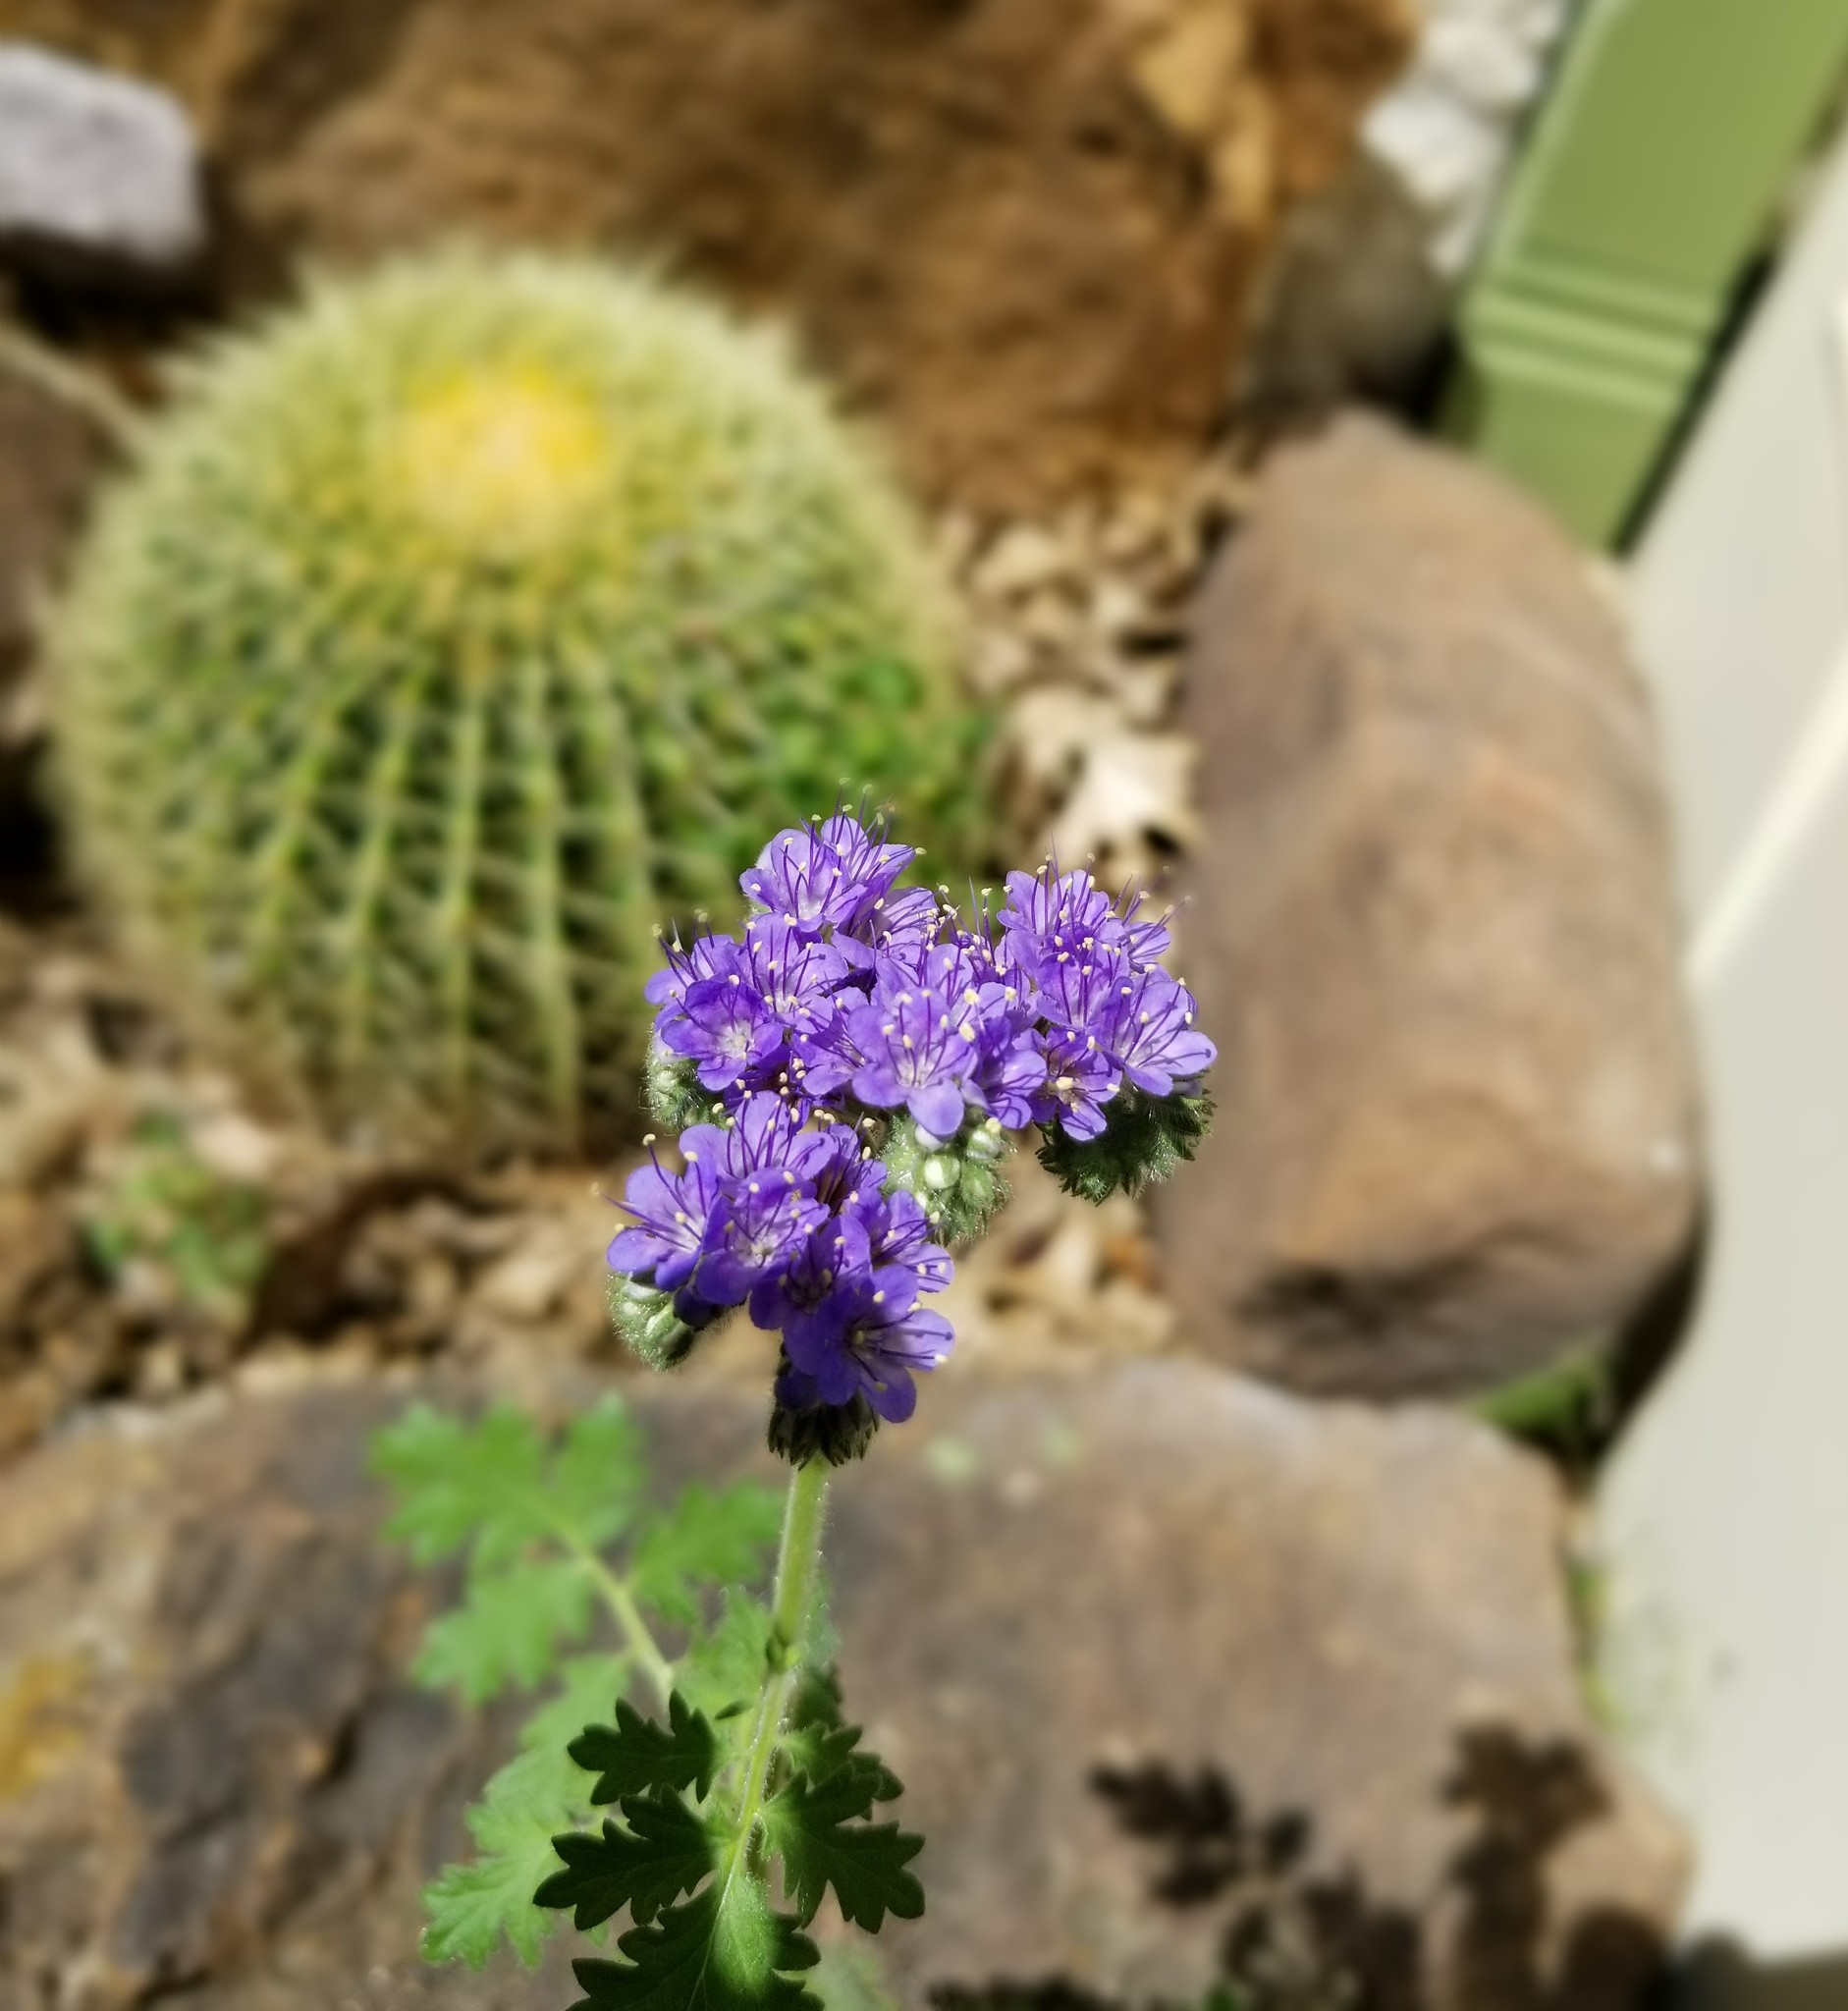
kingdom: Plantae
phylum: Tracheophyta
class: Magnoliopsida
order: Boraginales
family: Hydrophyllaceae
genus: Phacelia
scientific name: Phacelia congesta
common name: Blue curls
